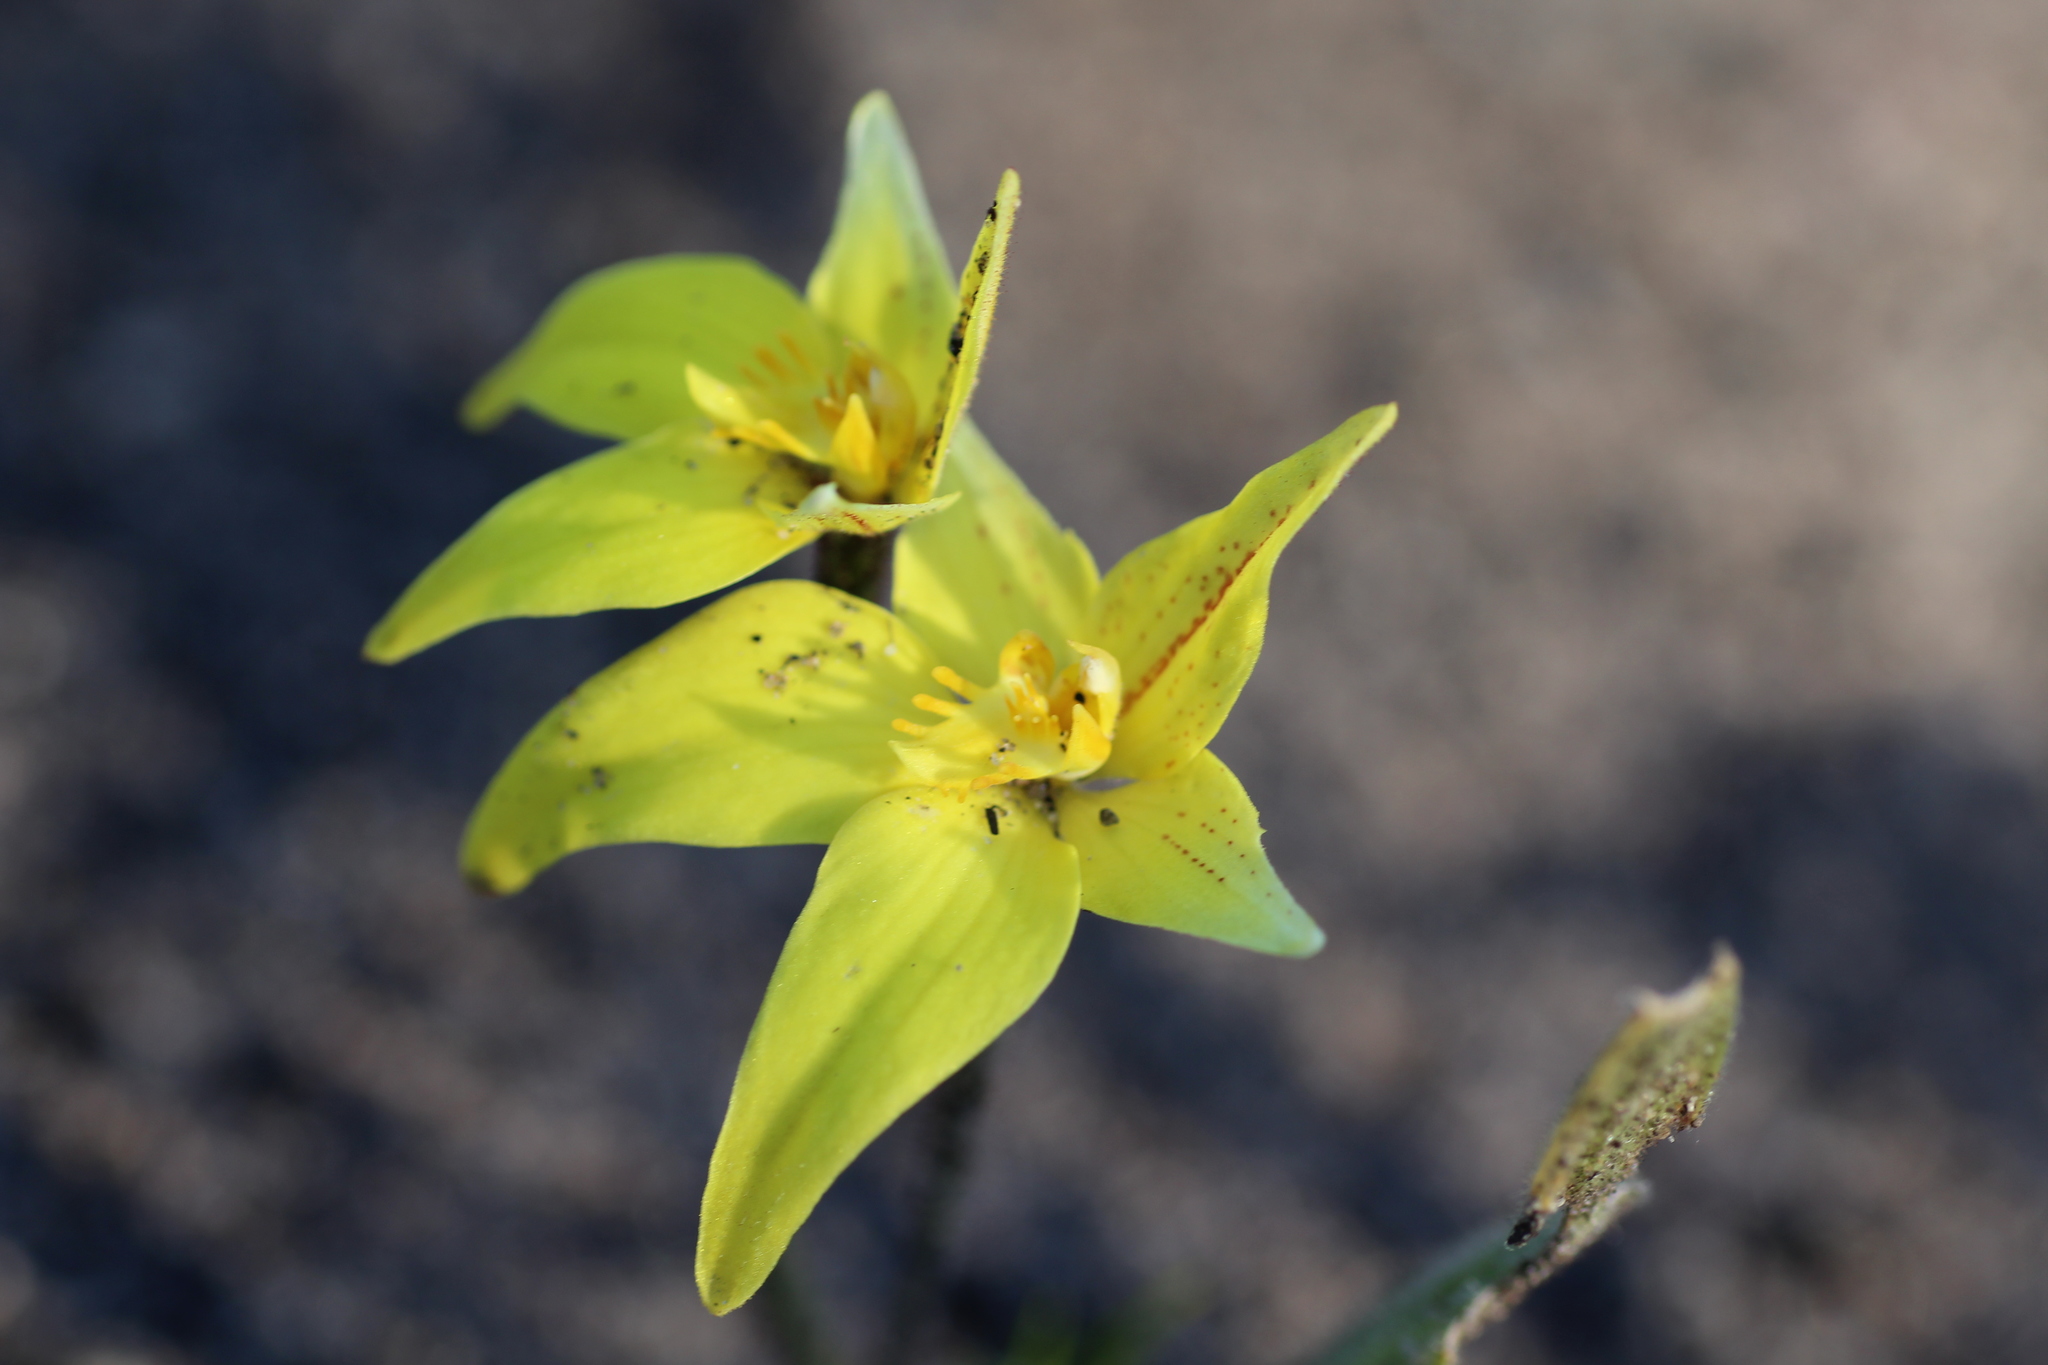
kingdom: Plantae
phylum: Tracheophyta
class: Liliopsida
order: Asparagales
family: Orchidaceae
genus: Caladenia
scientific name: Caladenia flava
